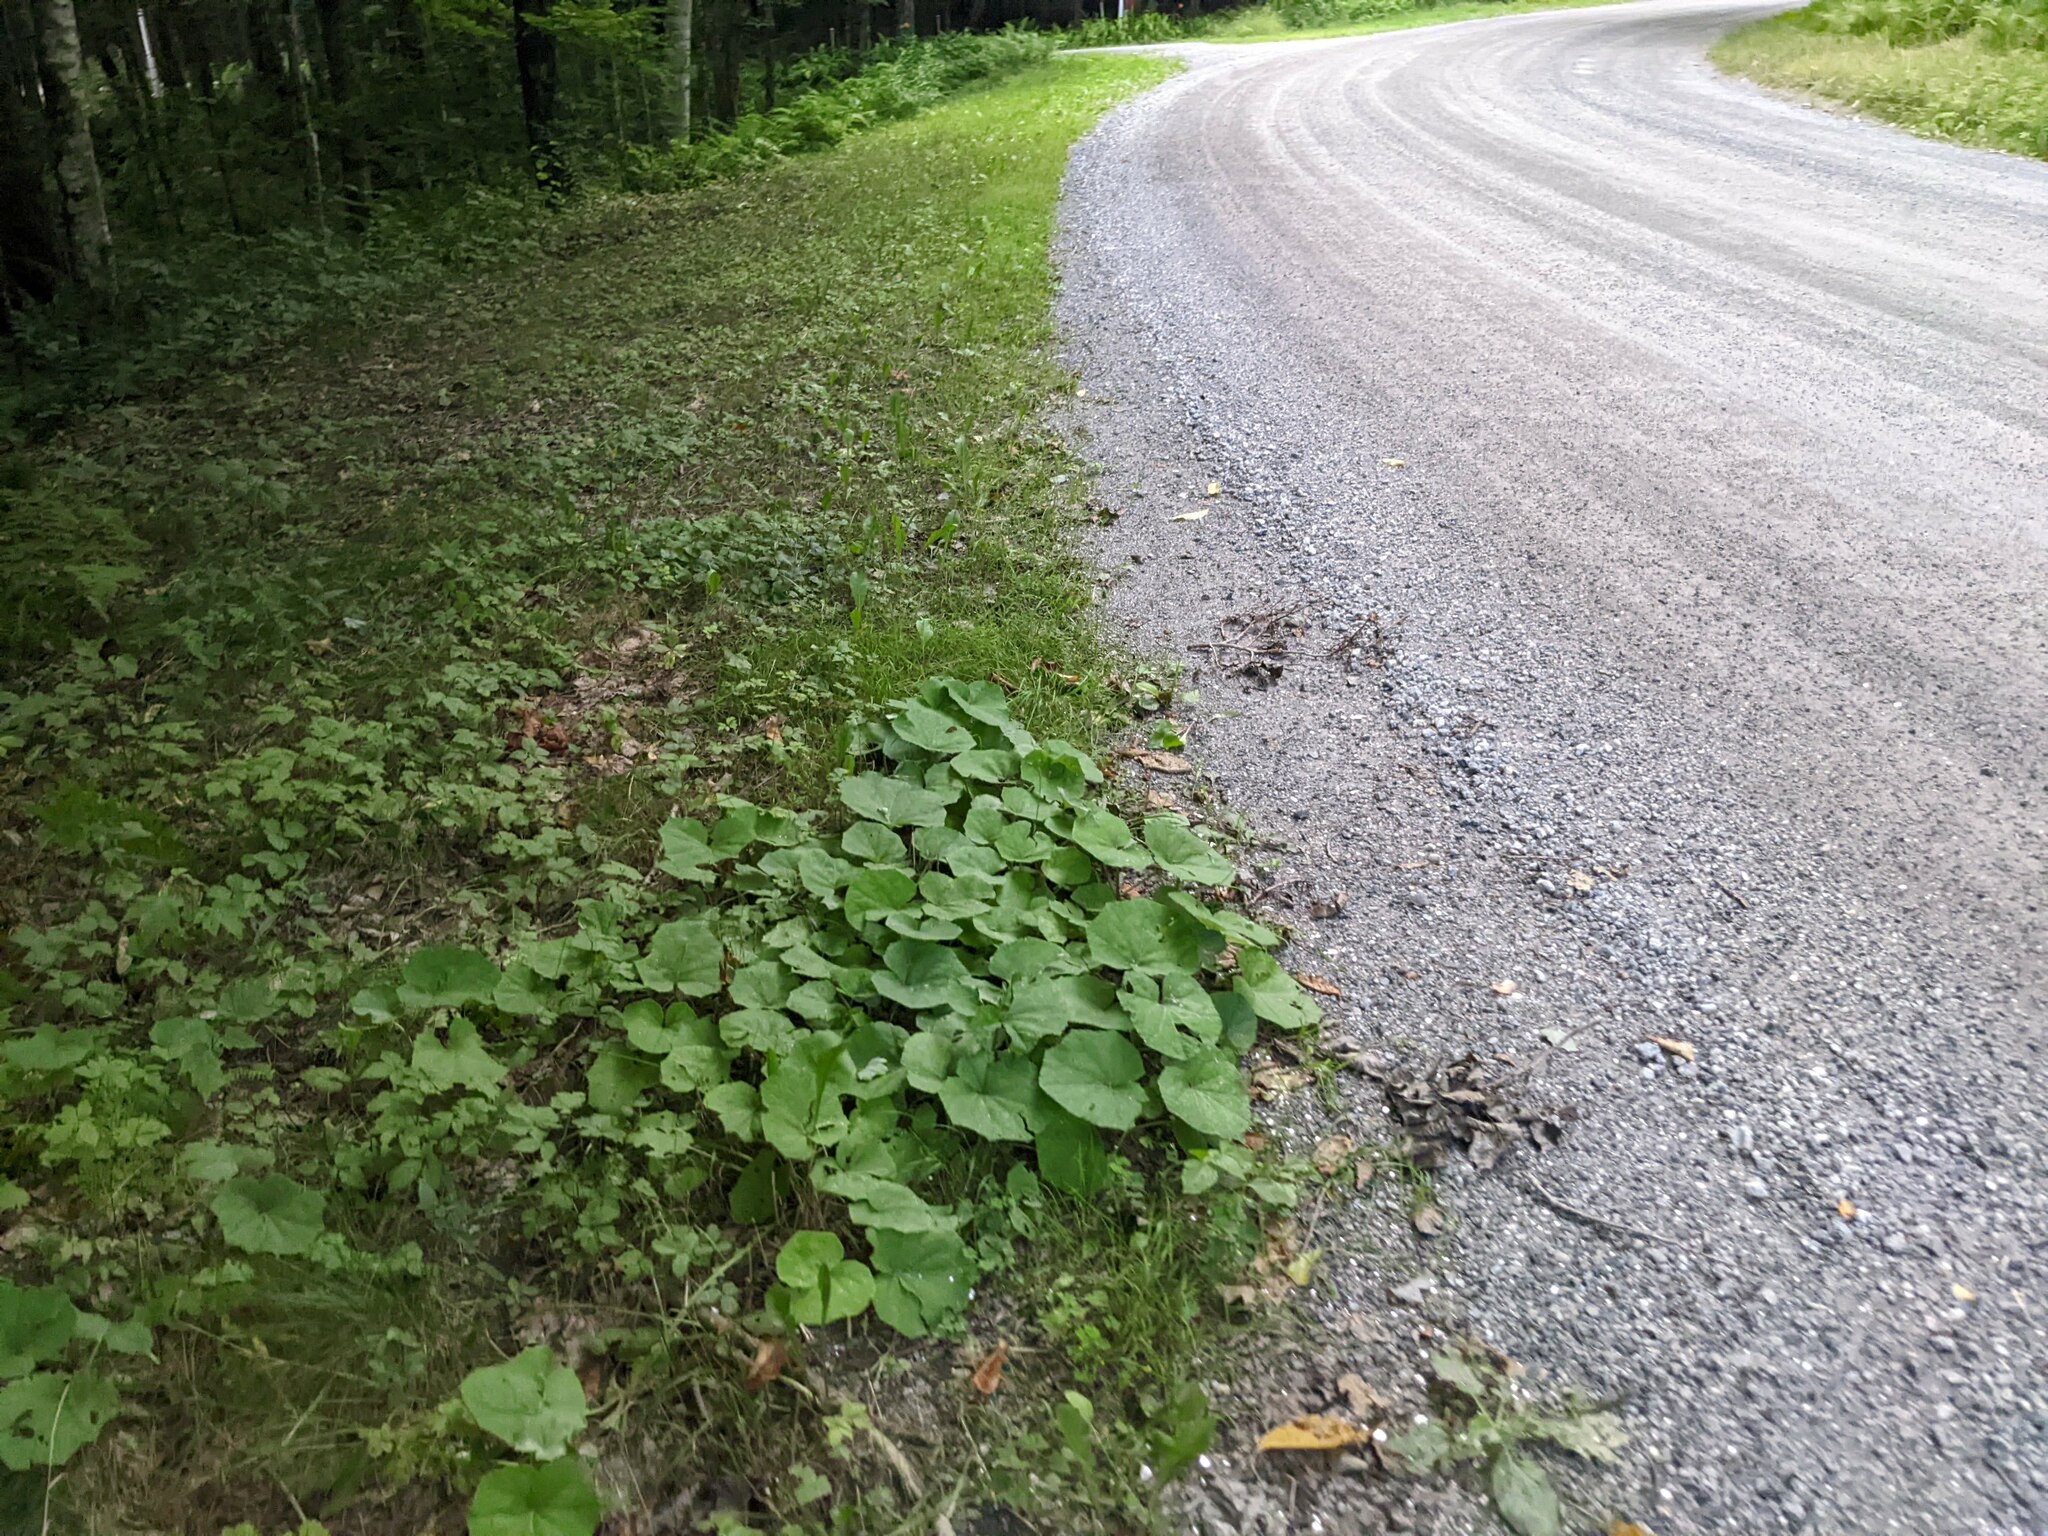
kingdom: Plantae
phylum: Tracheophyta
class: Magnoliopsida
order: Asterales
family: Asteraceae
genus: Tussilago
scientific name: Tussilago farfara
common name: Coltsfoot
